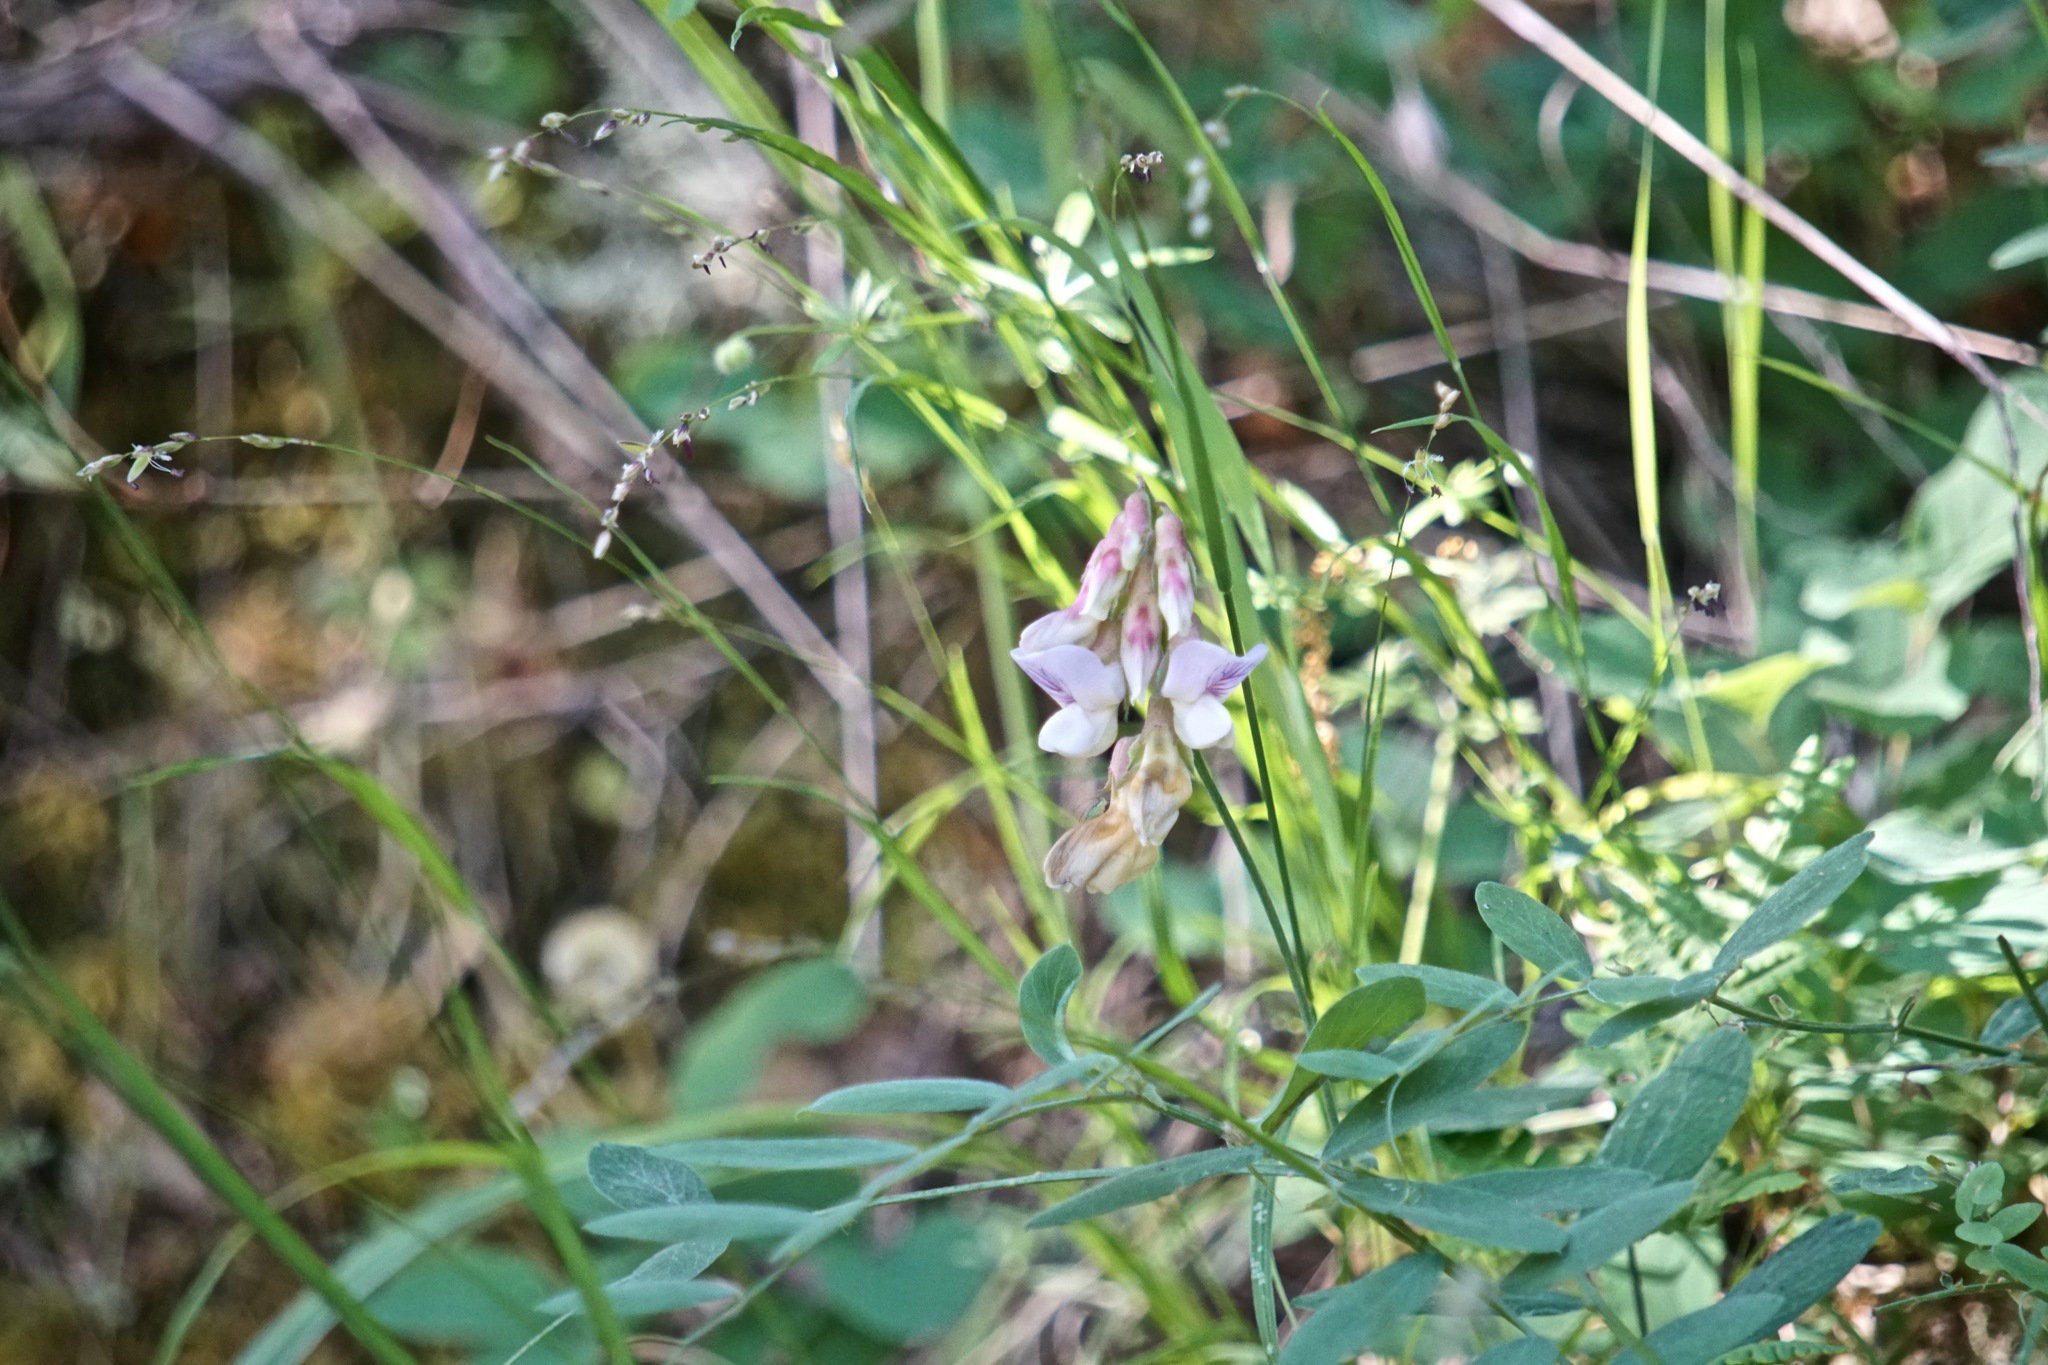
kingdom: Plantae
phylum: Tracheophyta
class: Magnoliopsida
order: Fabales
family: Fabaceae
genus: Lathyrus
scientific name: Lathyrus vestitus
